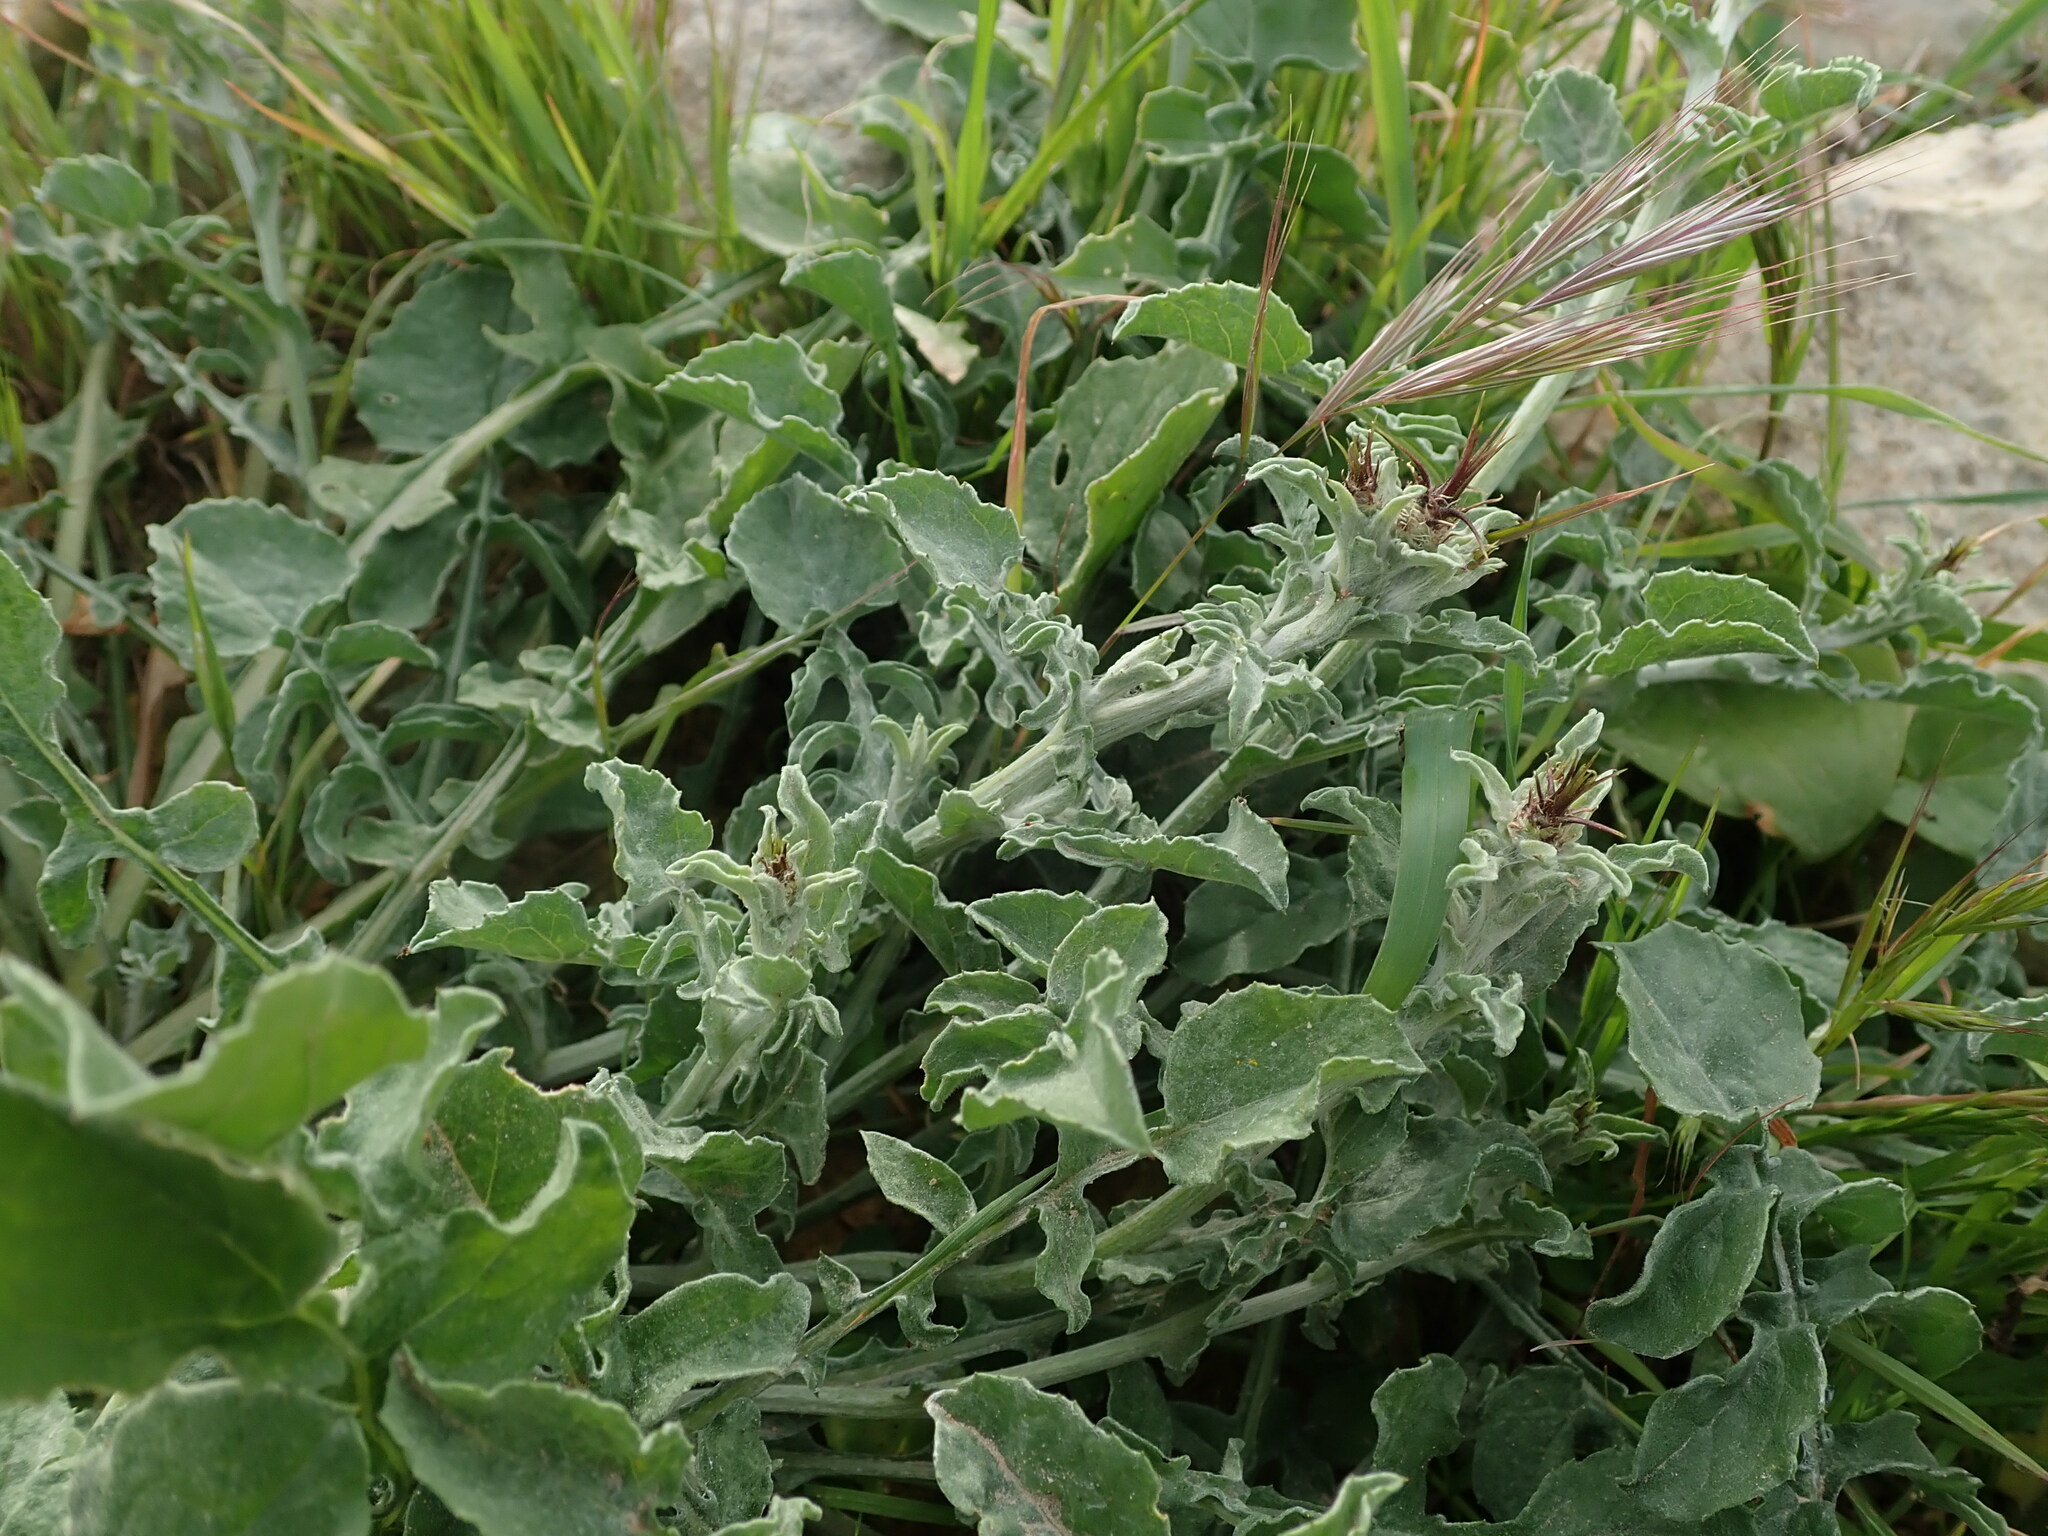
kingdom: Plantae
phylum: Tracheophyta
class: Magnoliopsida
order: Asterales
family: Asteraceae
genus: Centaurea
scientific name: Centaurea sicula
